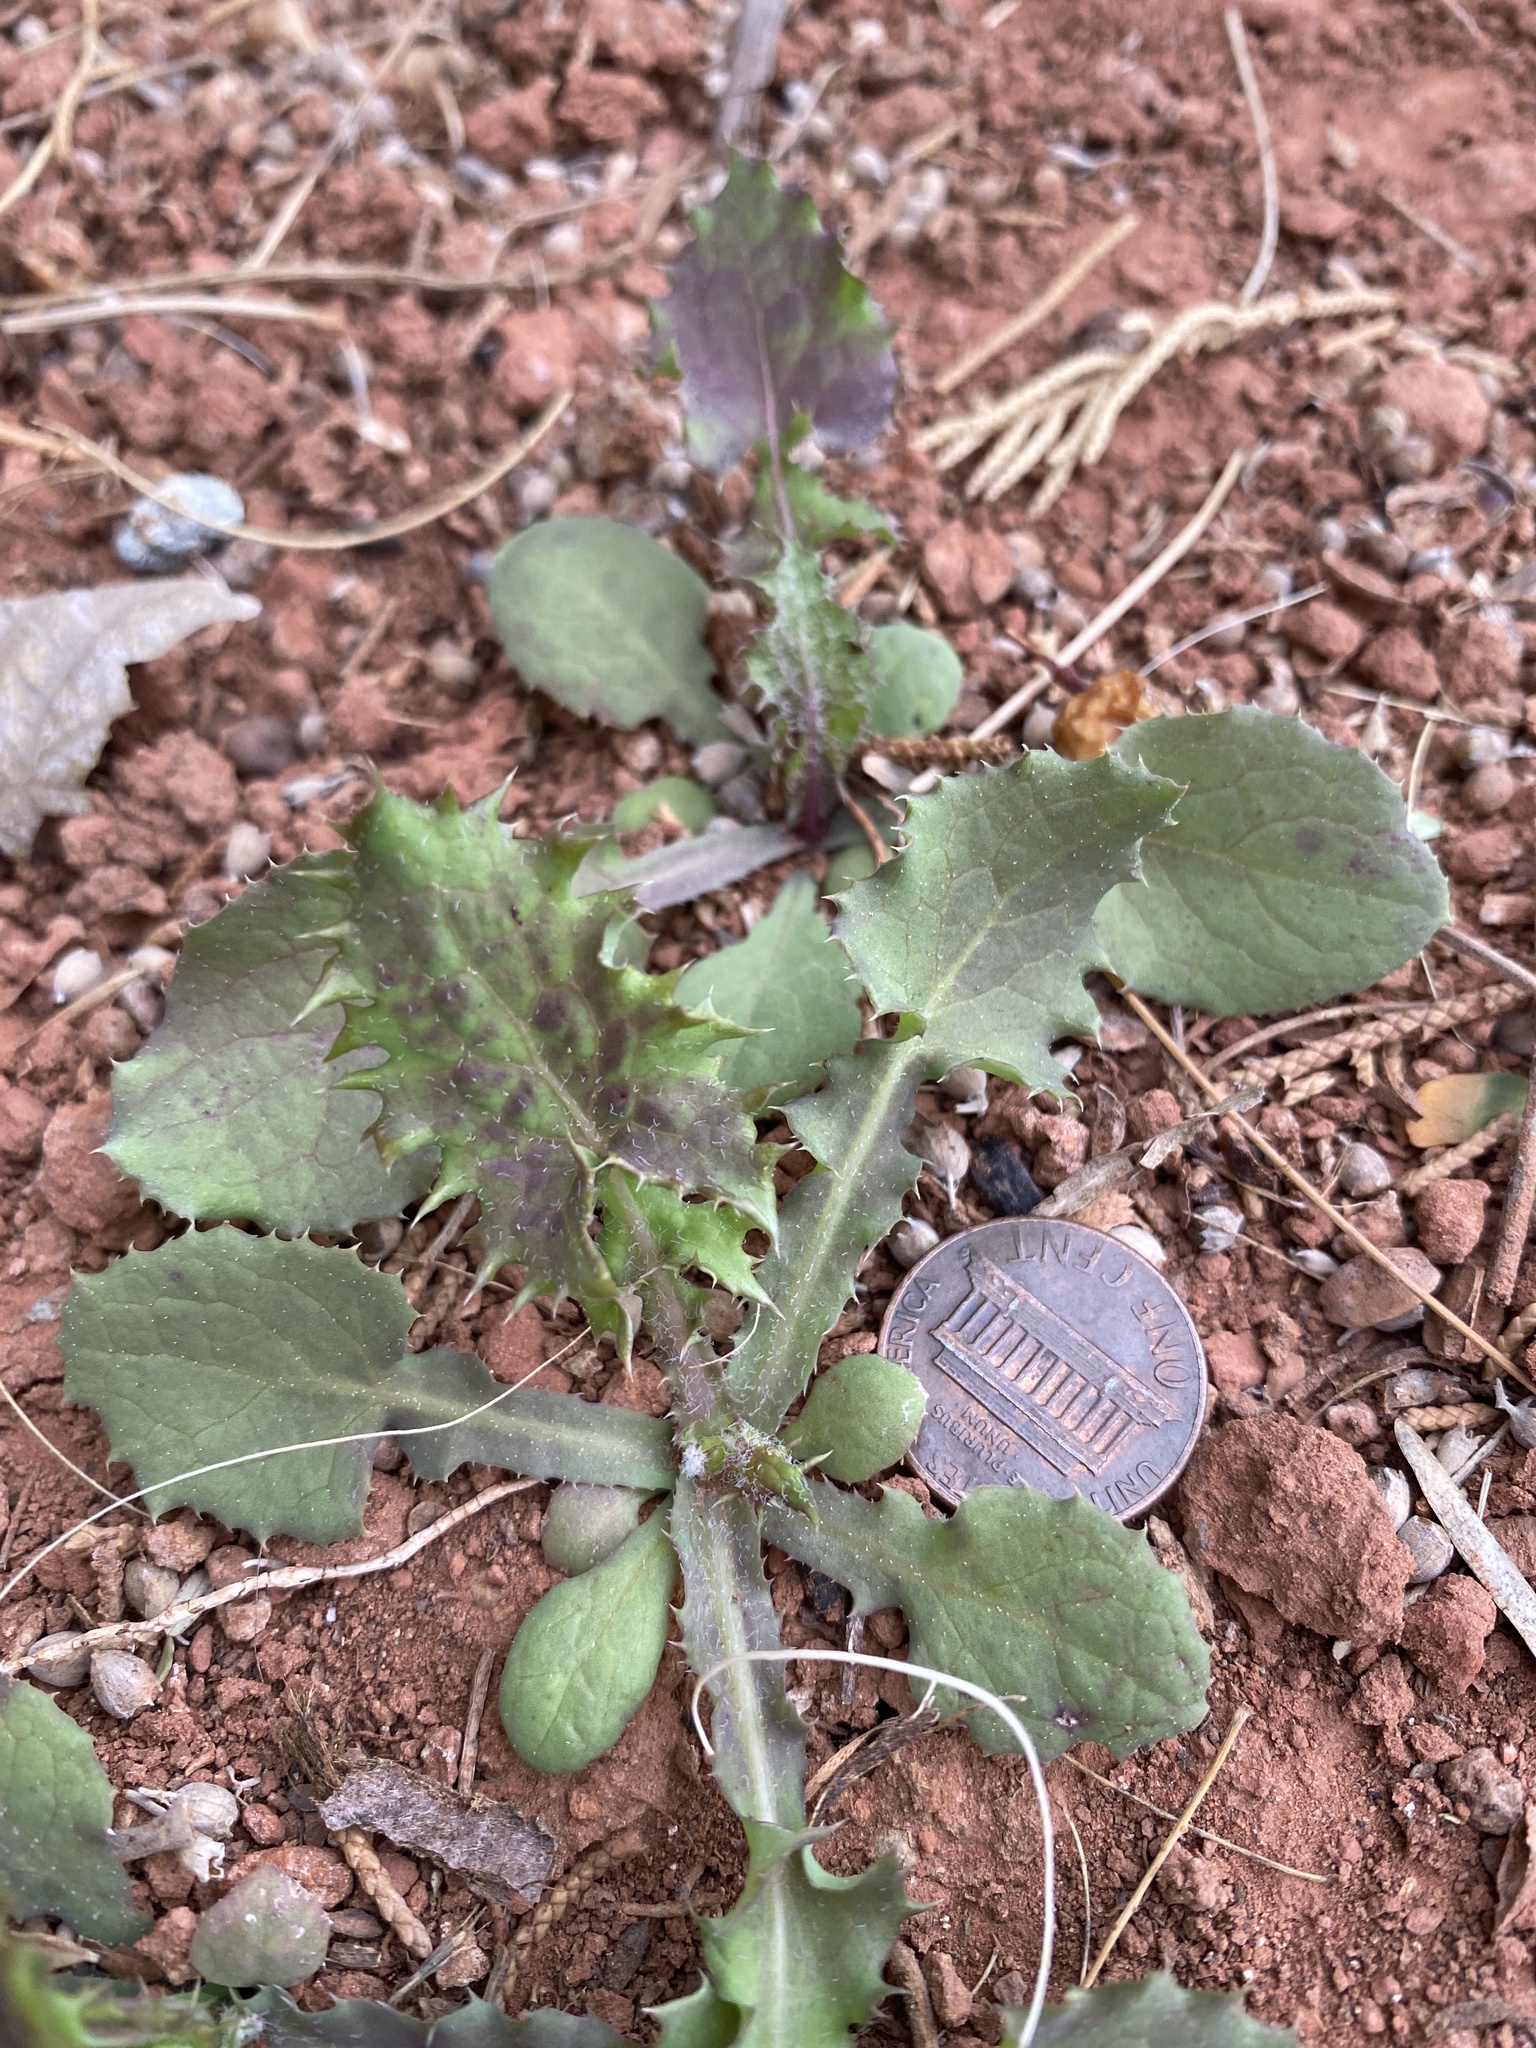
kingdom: Plantae
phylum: Tracheophyta
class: Magnoliopsida
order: Asterales
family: Asteraceae
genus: Sonchus
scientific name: Sonchus oleraceus
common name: Common sowthistle
